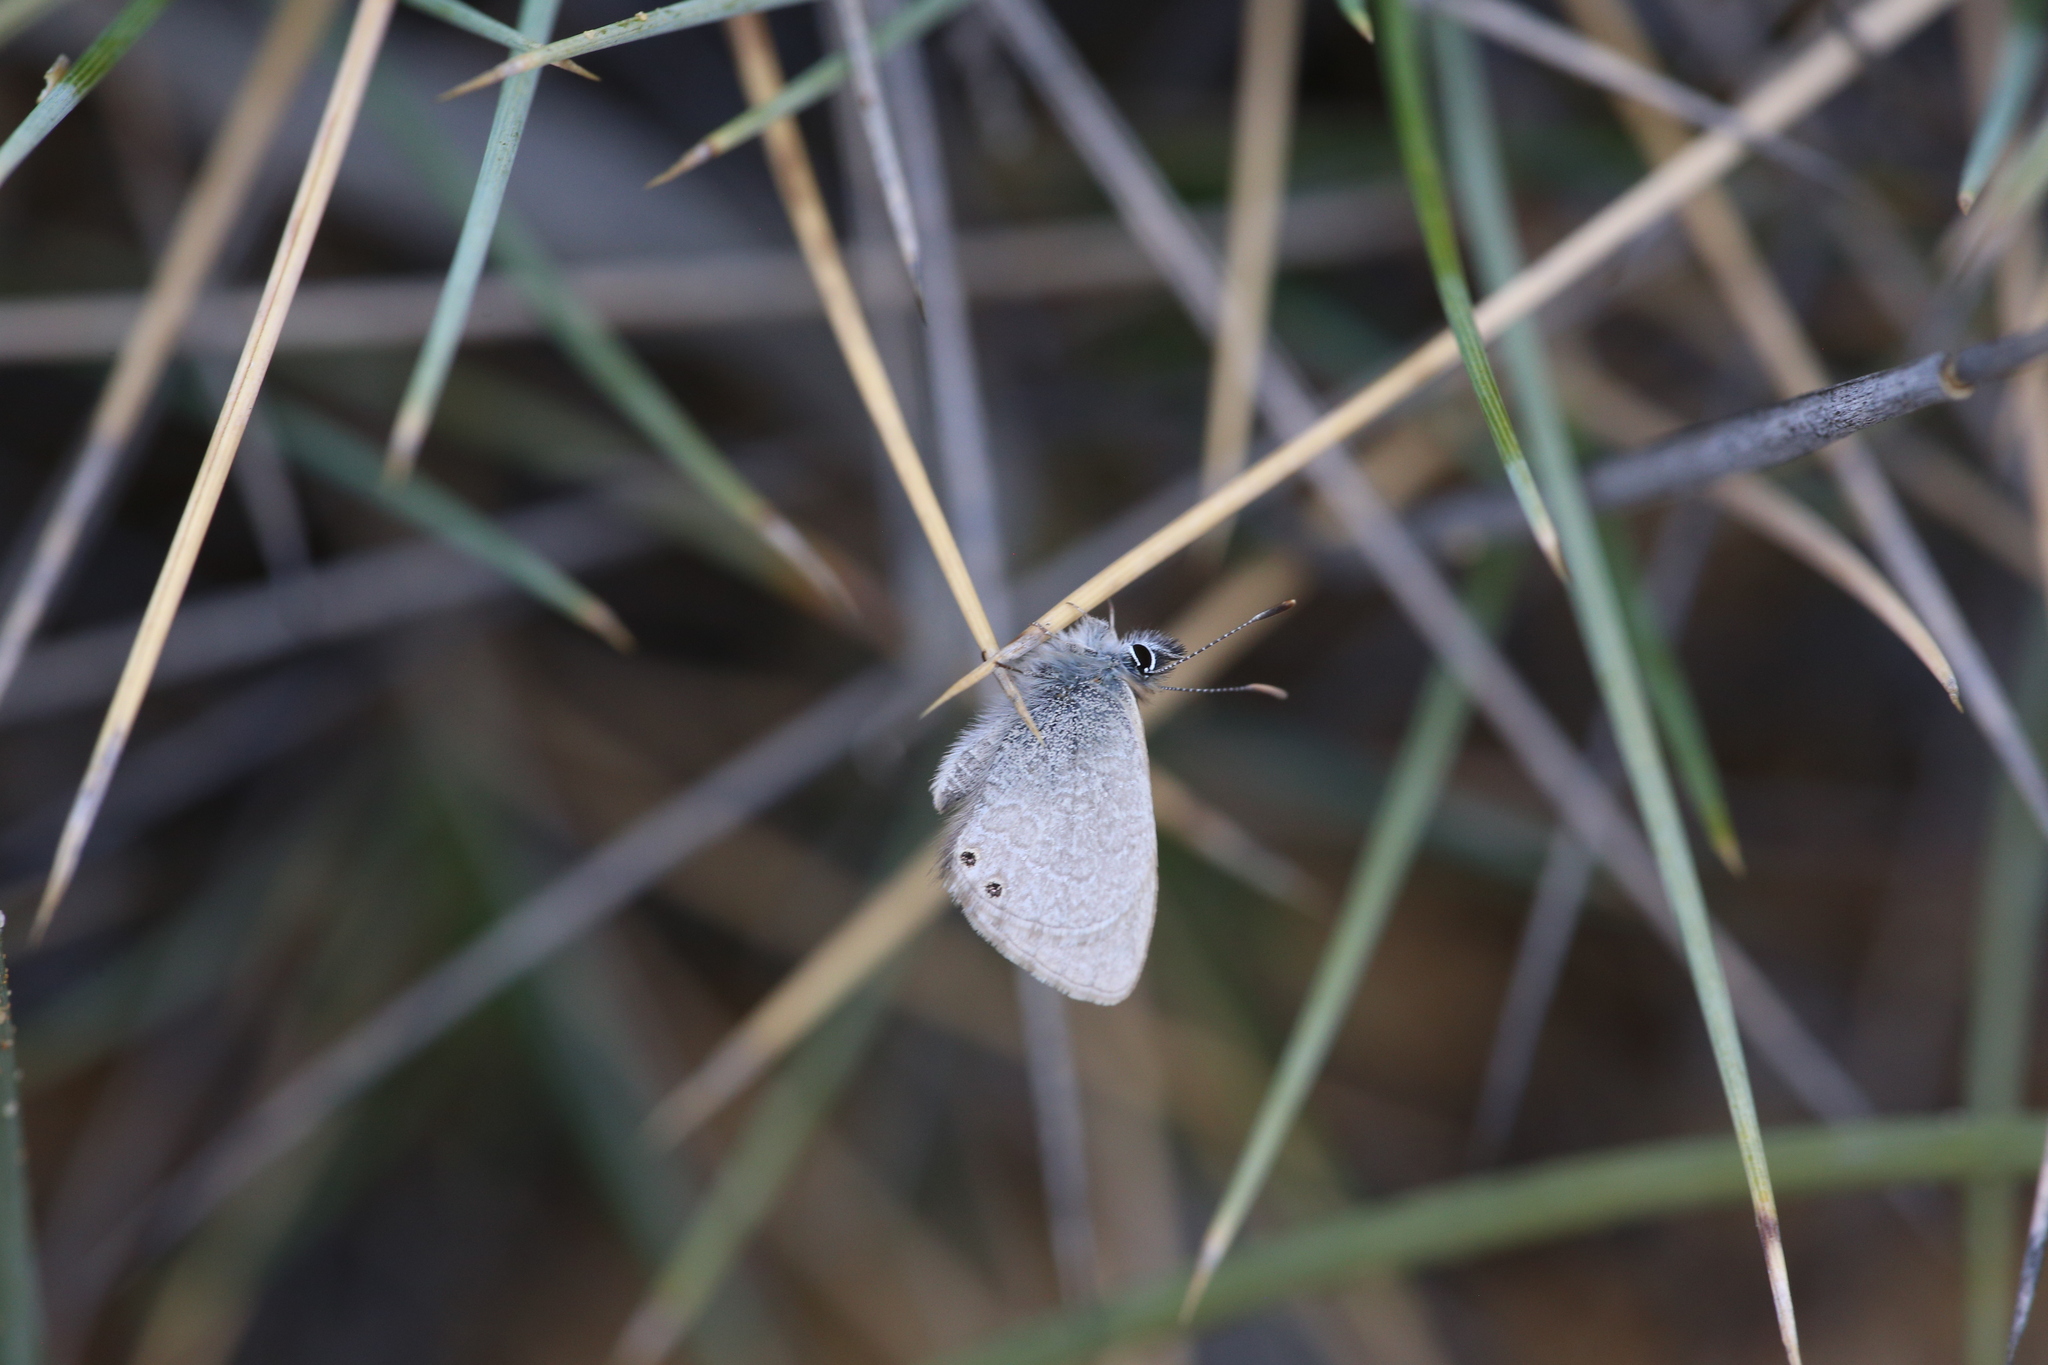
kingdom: Animalia
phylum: Arthropoda
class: Insecta
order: Lepidoptera
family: Lycaenidae
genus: Nacaduba
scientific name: Nacaduba biocellata
